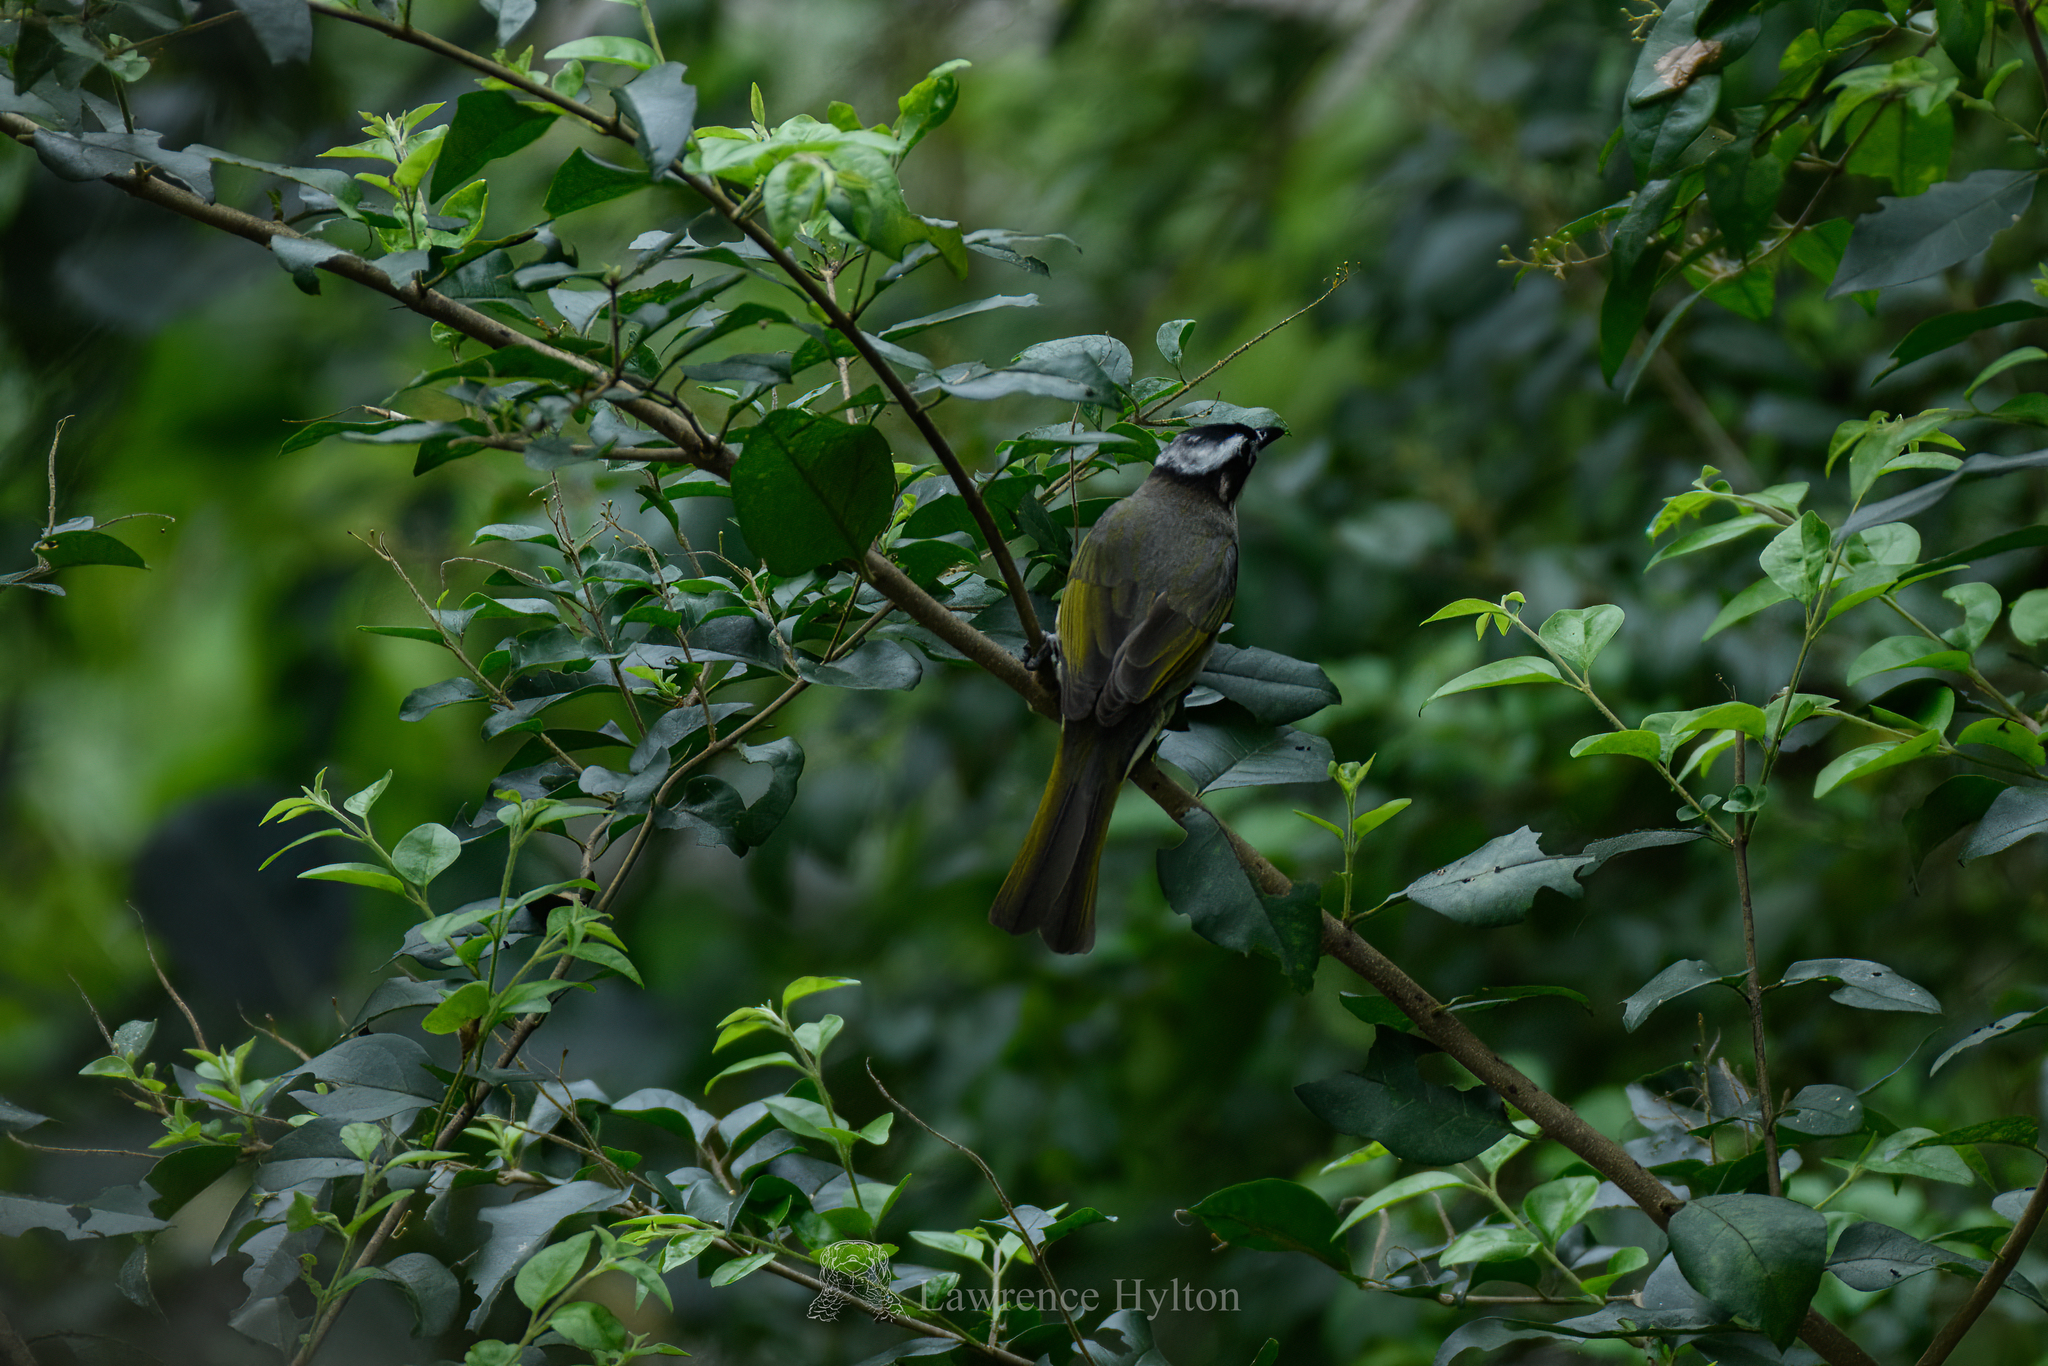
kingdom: Animalia
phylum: Chordata
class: Aves
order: Passeriformes
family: Pycnonotidae
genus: Pycnonotus
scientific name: Pycnonotus sinensis
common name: Light-vented bulbul
